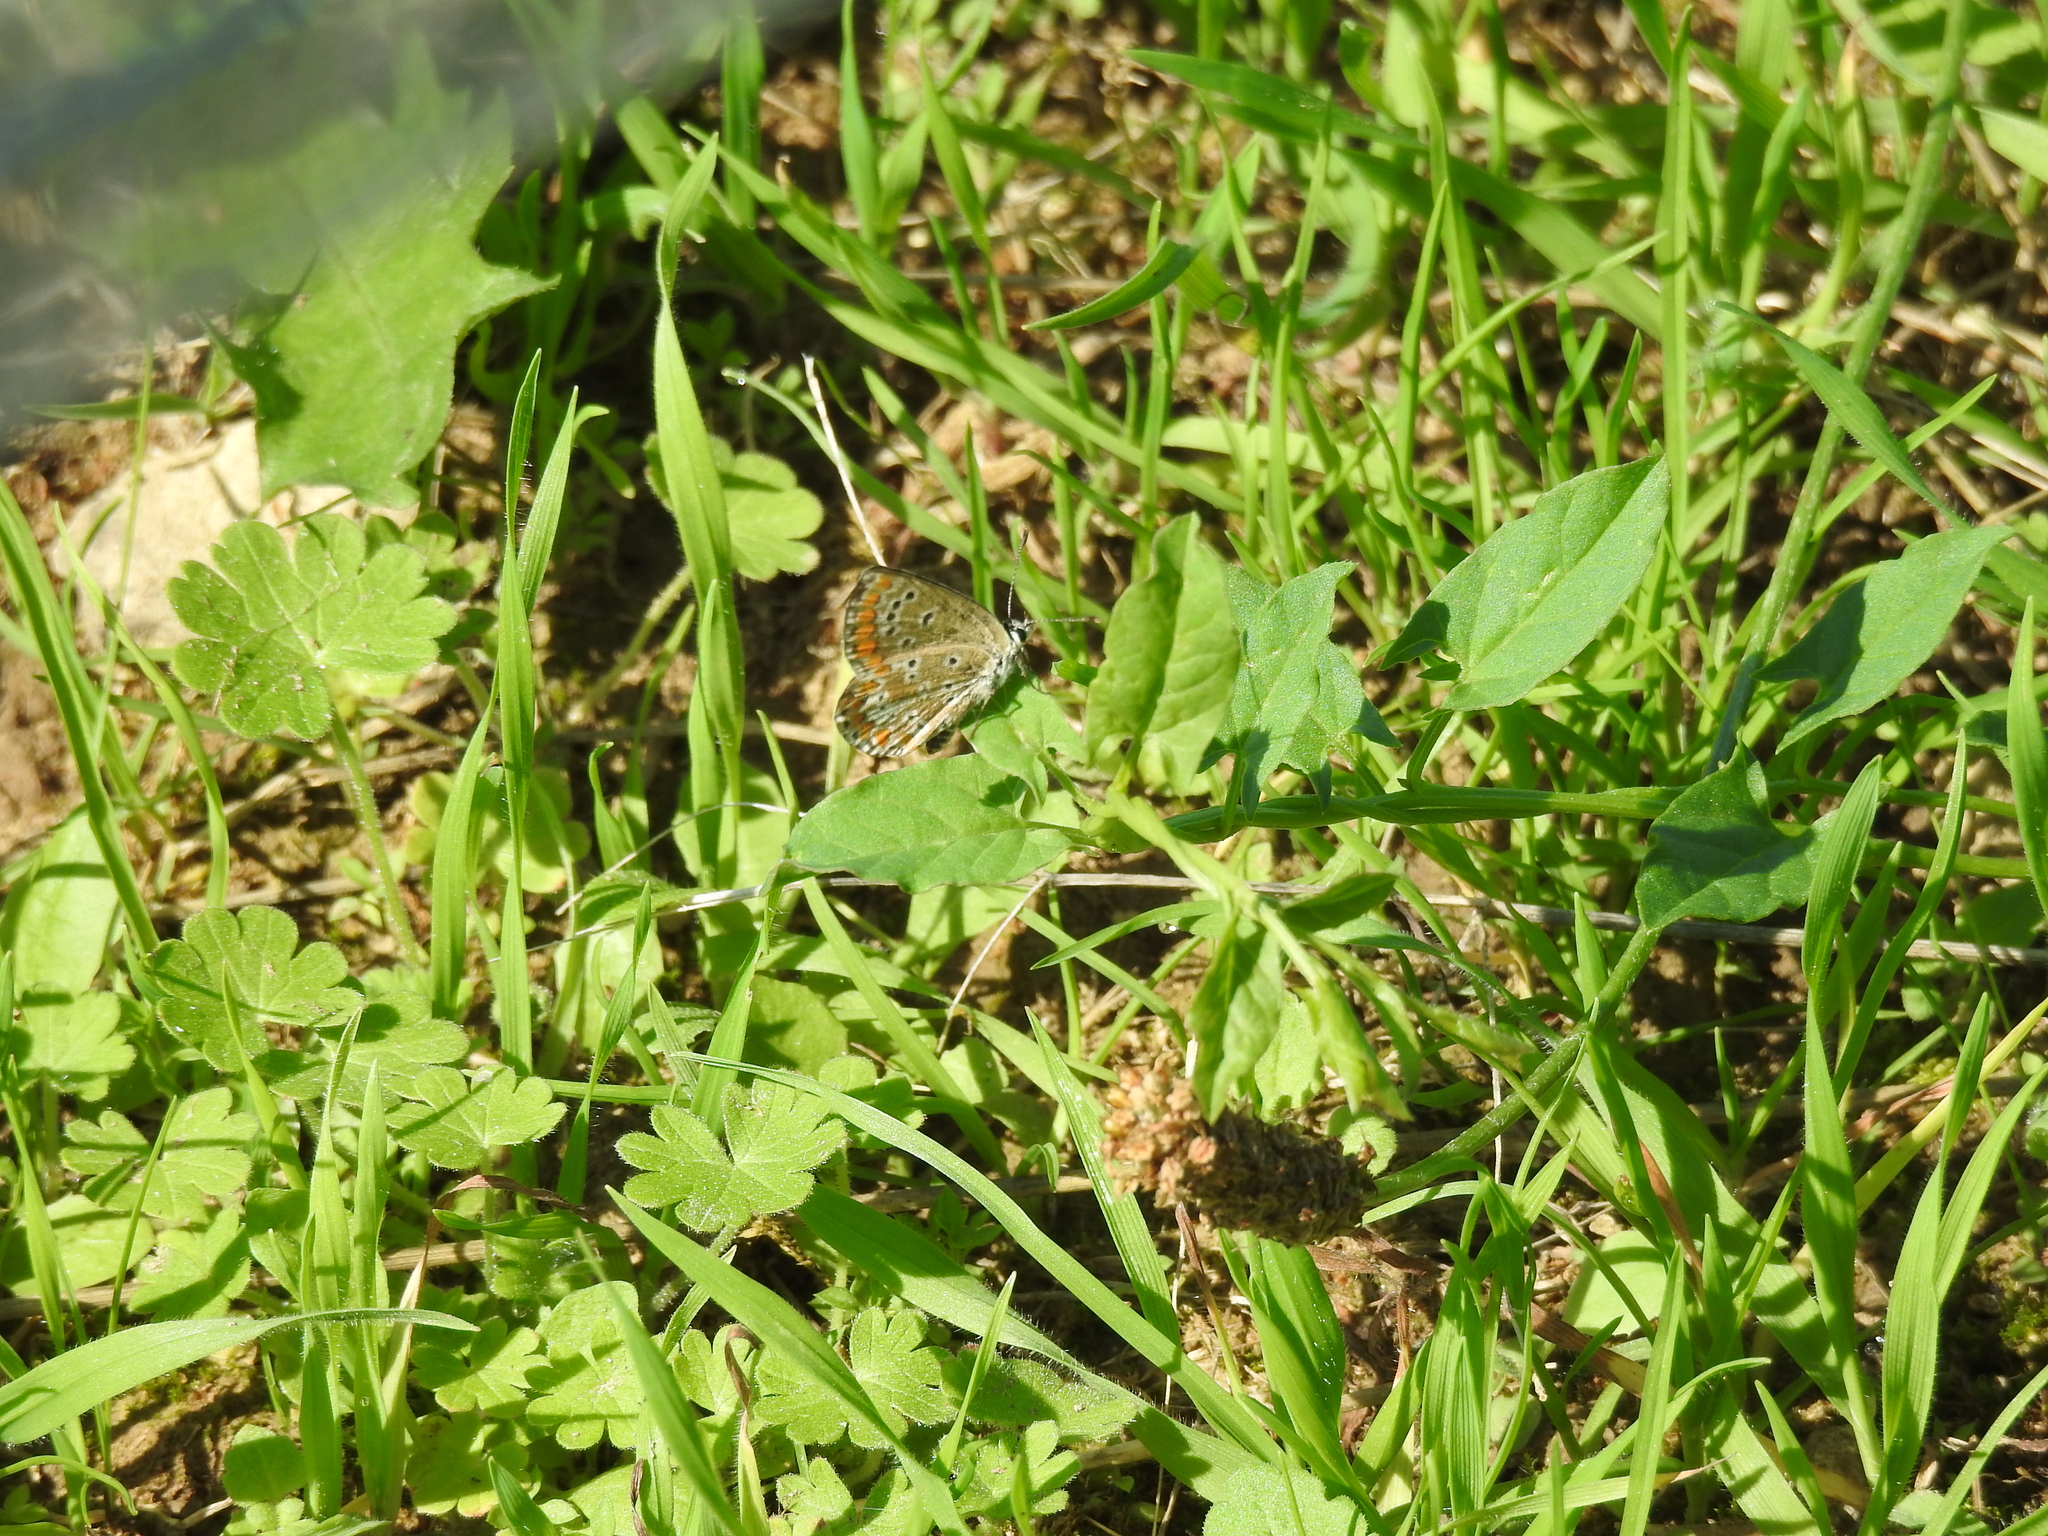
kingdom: Animalia
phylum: Arthropoda
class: Insecta
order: Lepidoptera
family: Lycaenidae
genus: Aricia
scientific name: Aricia agestis
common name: Brown argus
